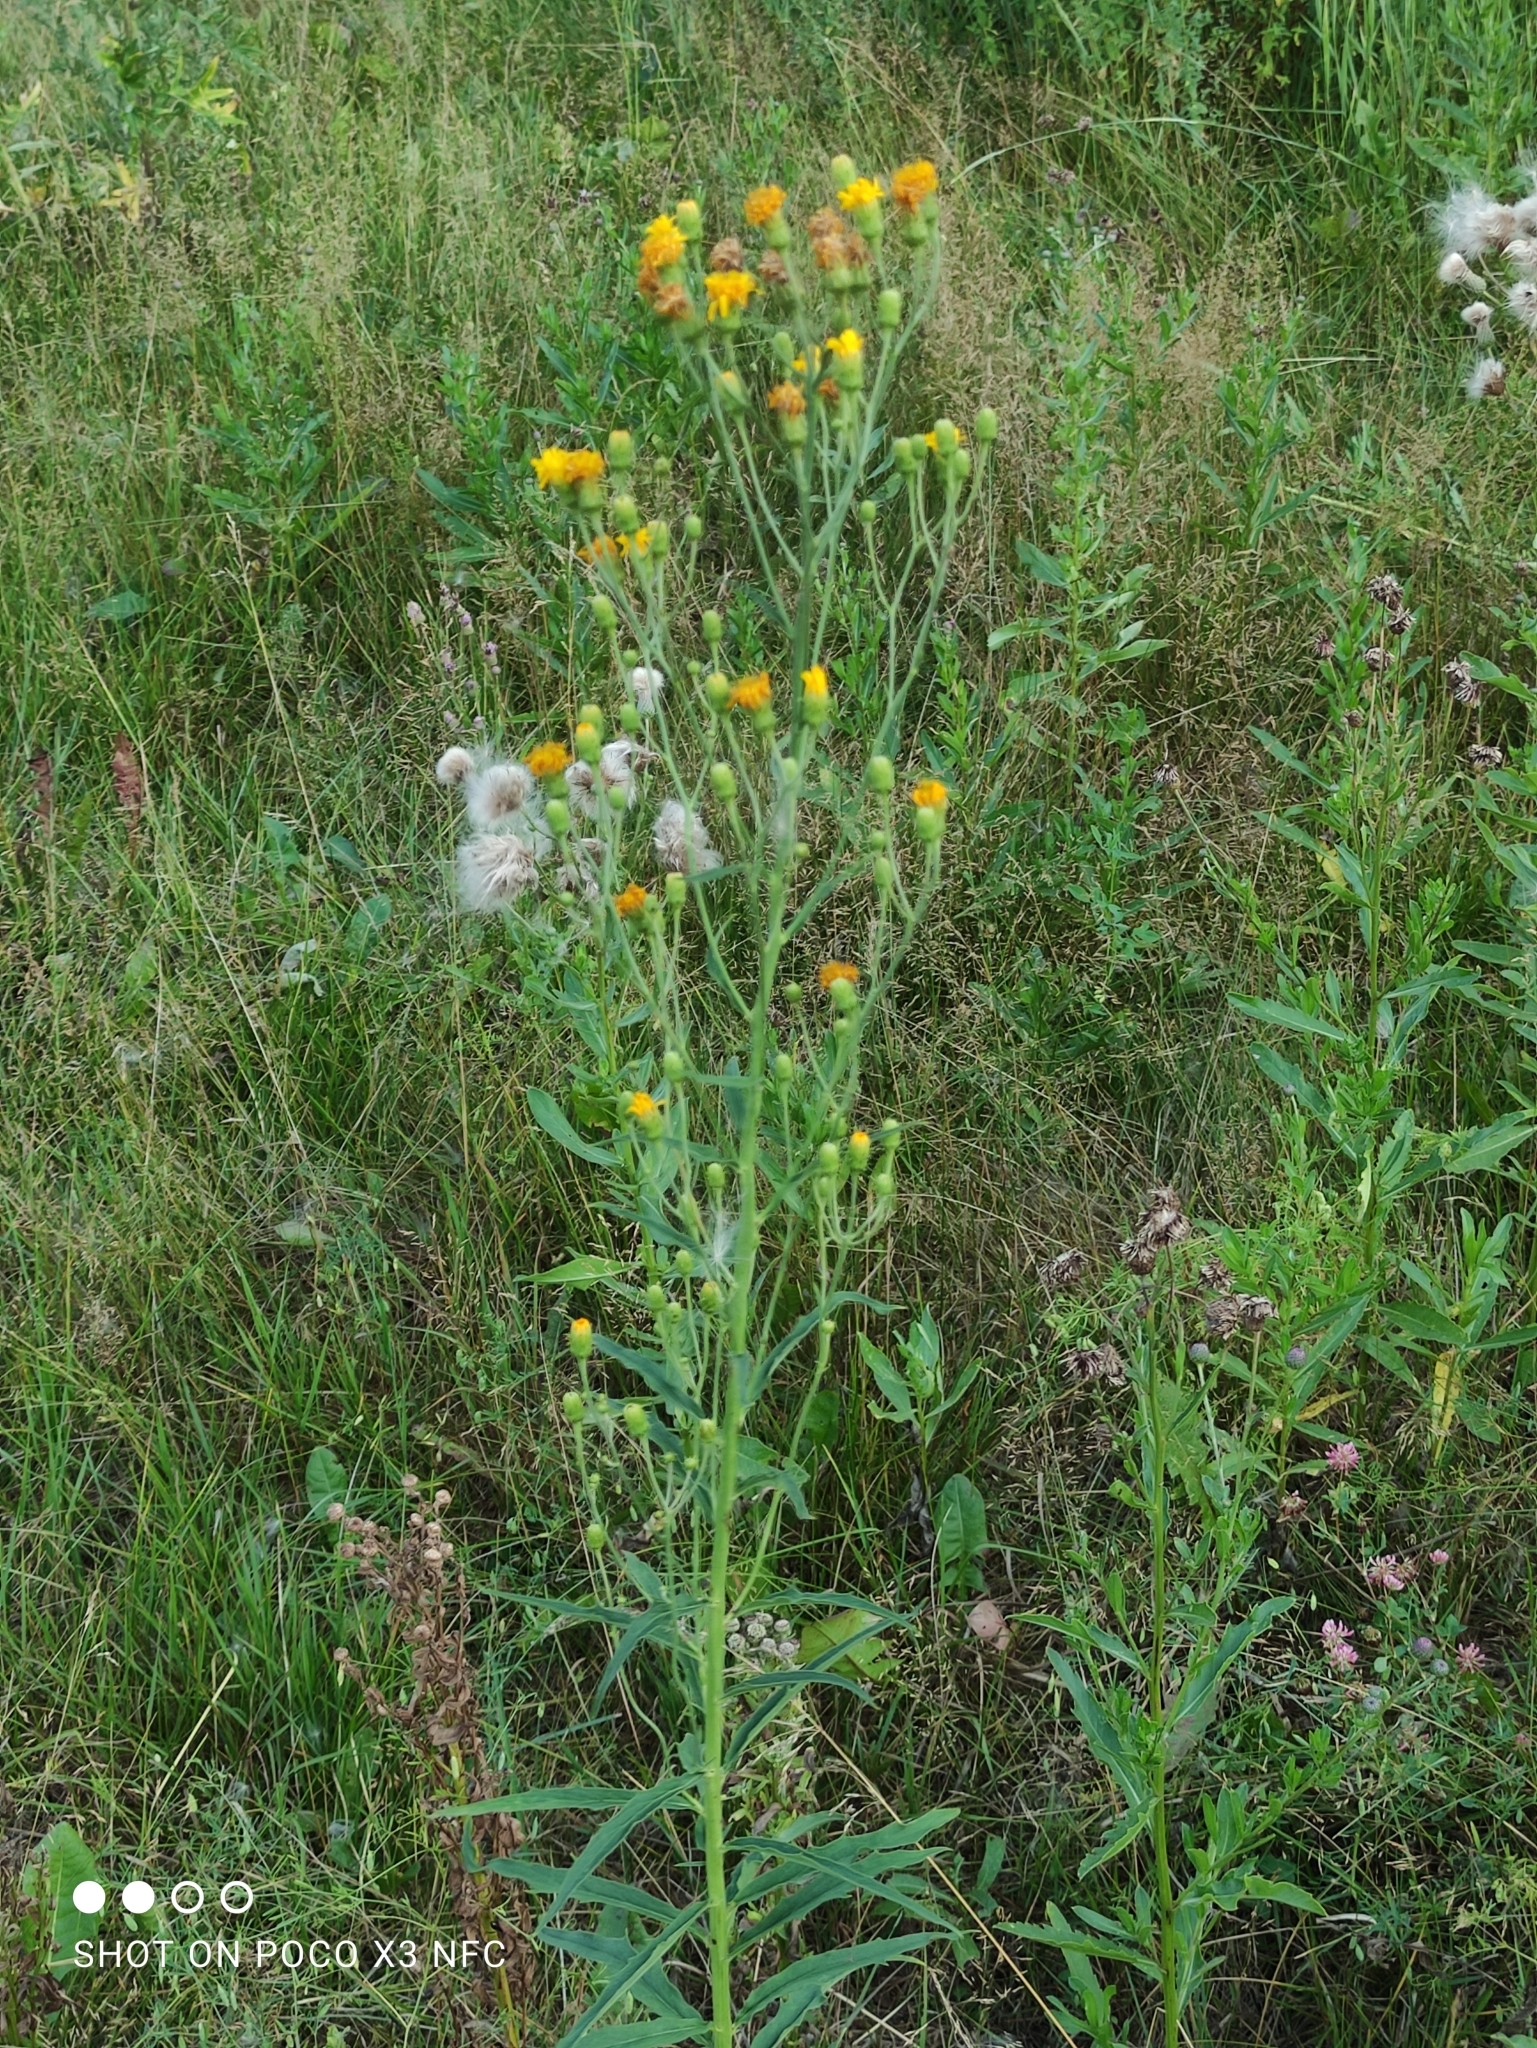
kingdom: Plantae
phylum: Tracheophyta
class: Magnoliopsida
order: Asterales
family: Asteraceae
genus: Hieracium
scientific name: Hieracium umbellatum
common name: Northern hawkweed
